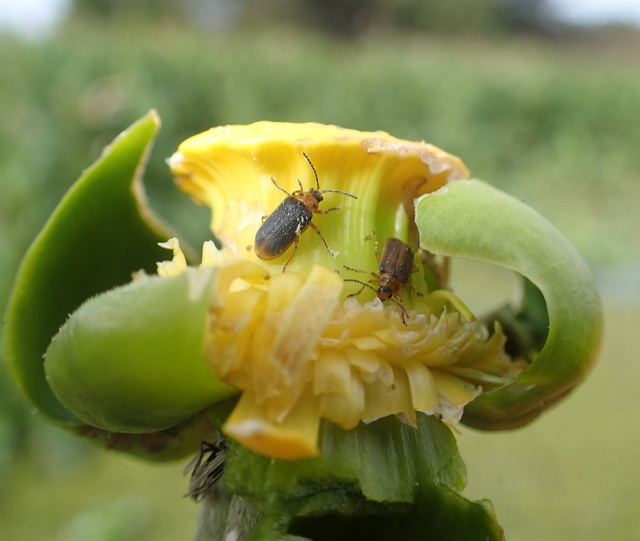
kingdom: Animalia
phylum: Arthropoda
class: Insecta
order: Coleoptera
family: Chrysomelidae
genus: Galerucella
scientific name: Galerucella nymphaeae
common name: Leaf beetle
